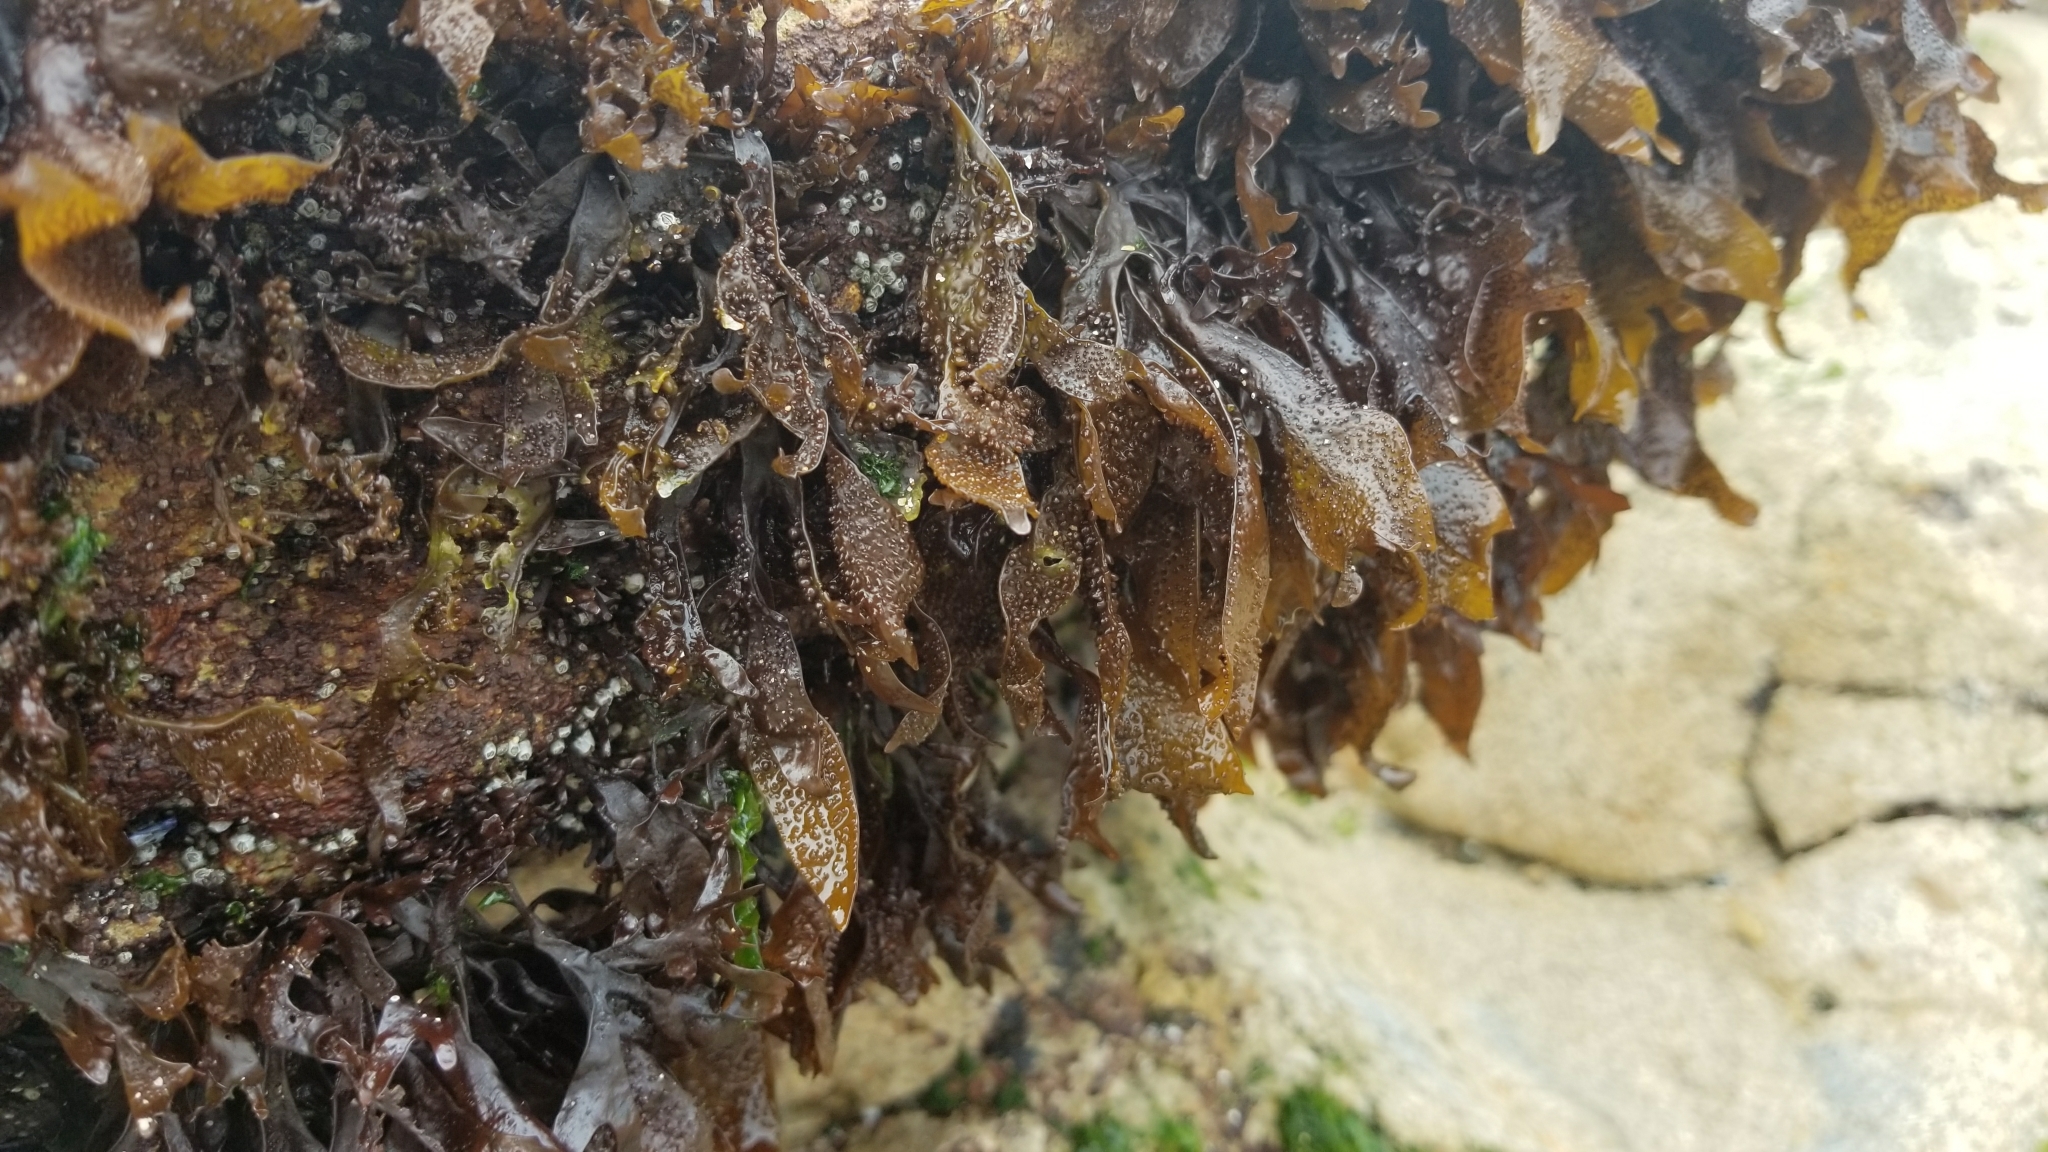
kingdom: Plantae
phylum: Rhodophyta
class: Florideophyceae
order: Gigartinales
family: Phyllophoraceae
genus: Mastocarpus
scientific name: Mastocarpus papillatus
